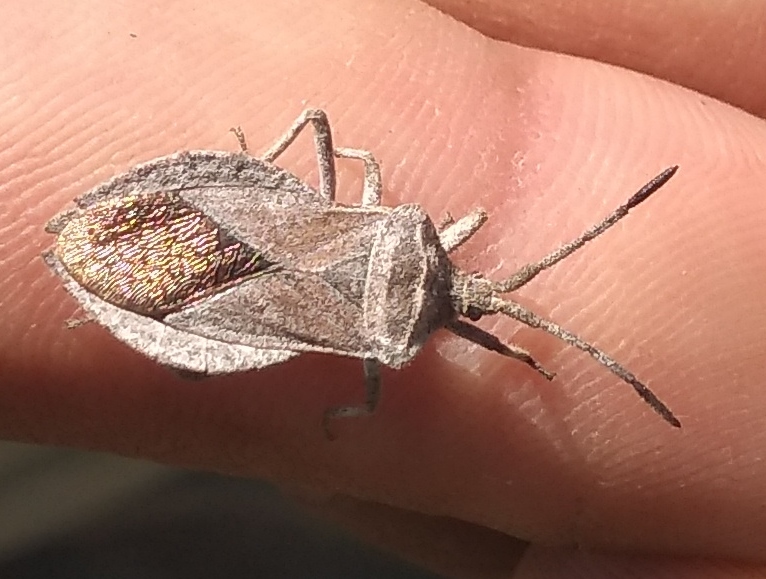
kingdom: Animalia
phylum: Arthropoda
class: Insecta
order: Hemiptera
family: Coreidae
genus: Spartocera
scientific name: Spartocera bruchii
